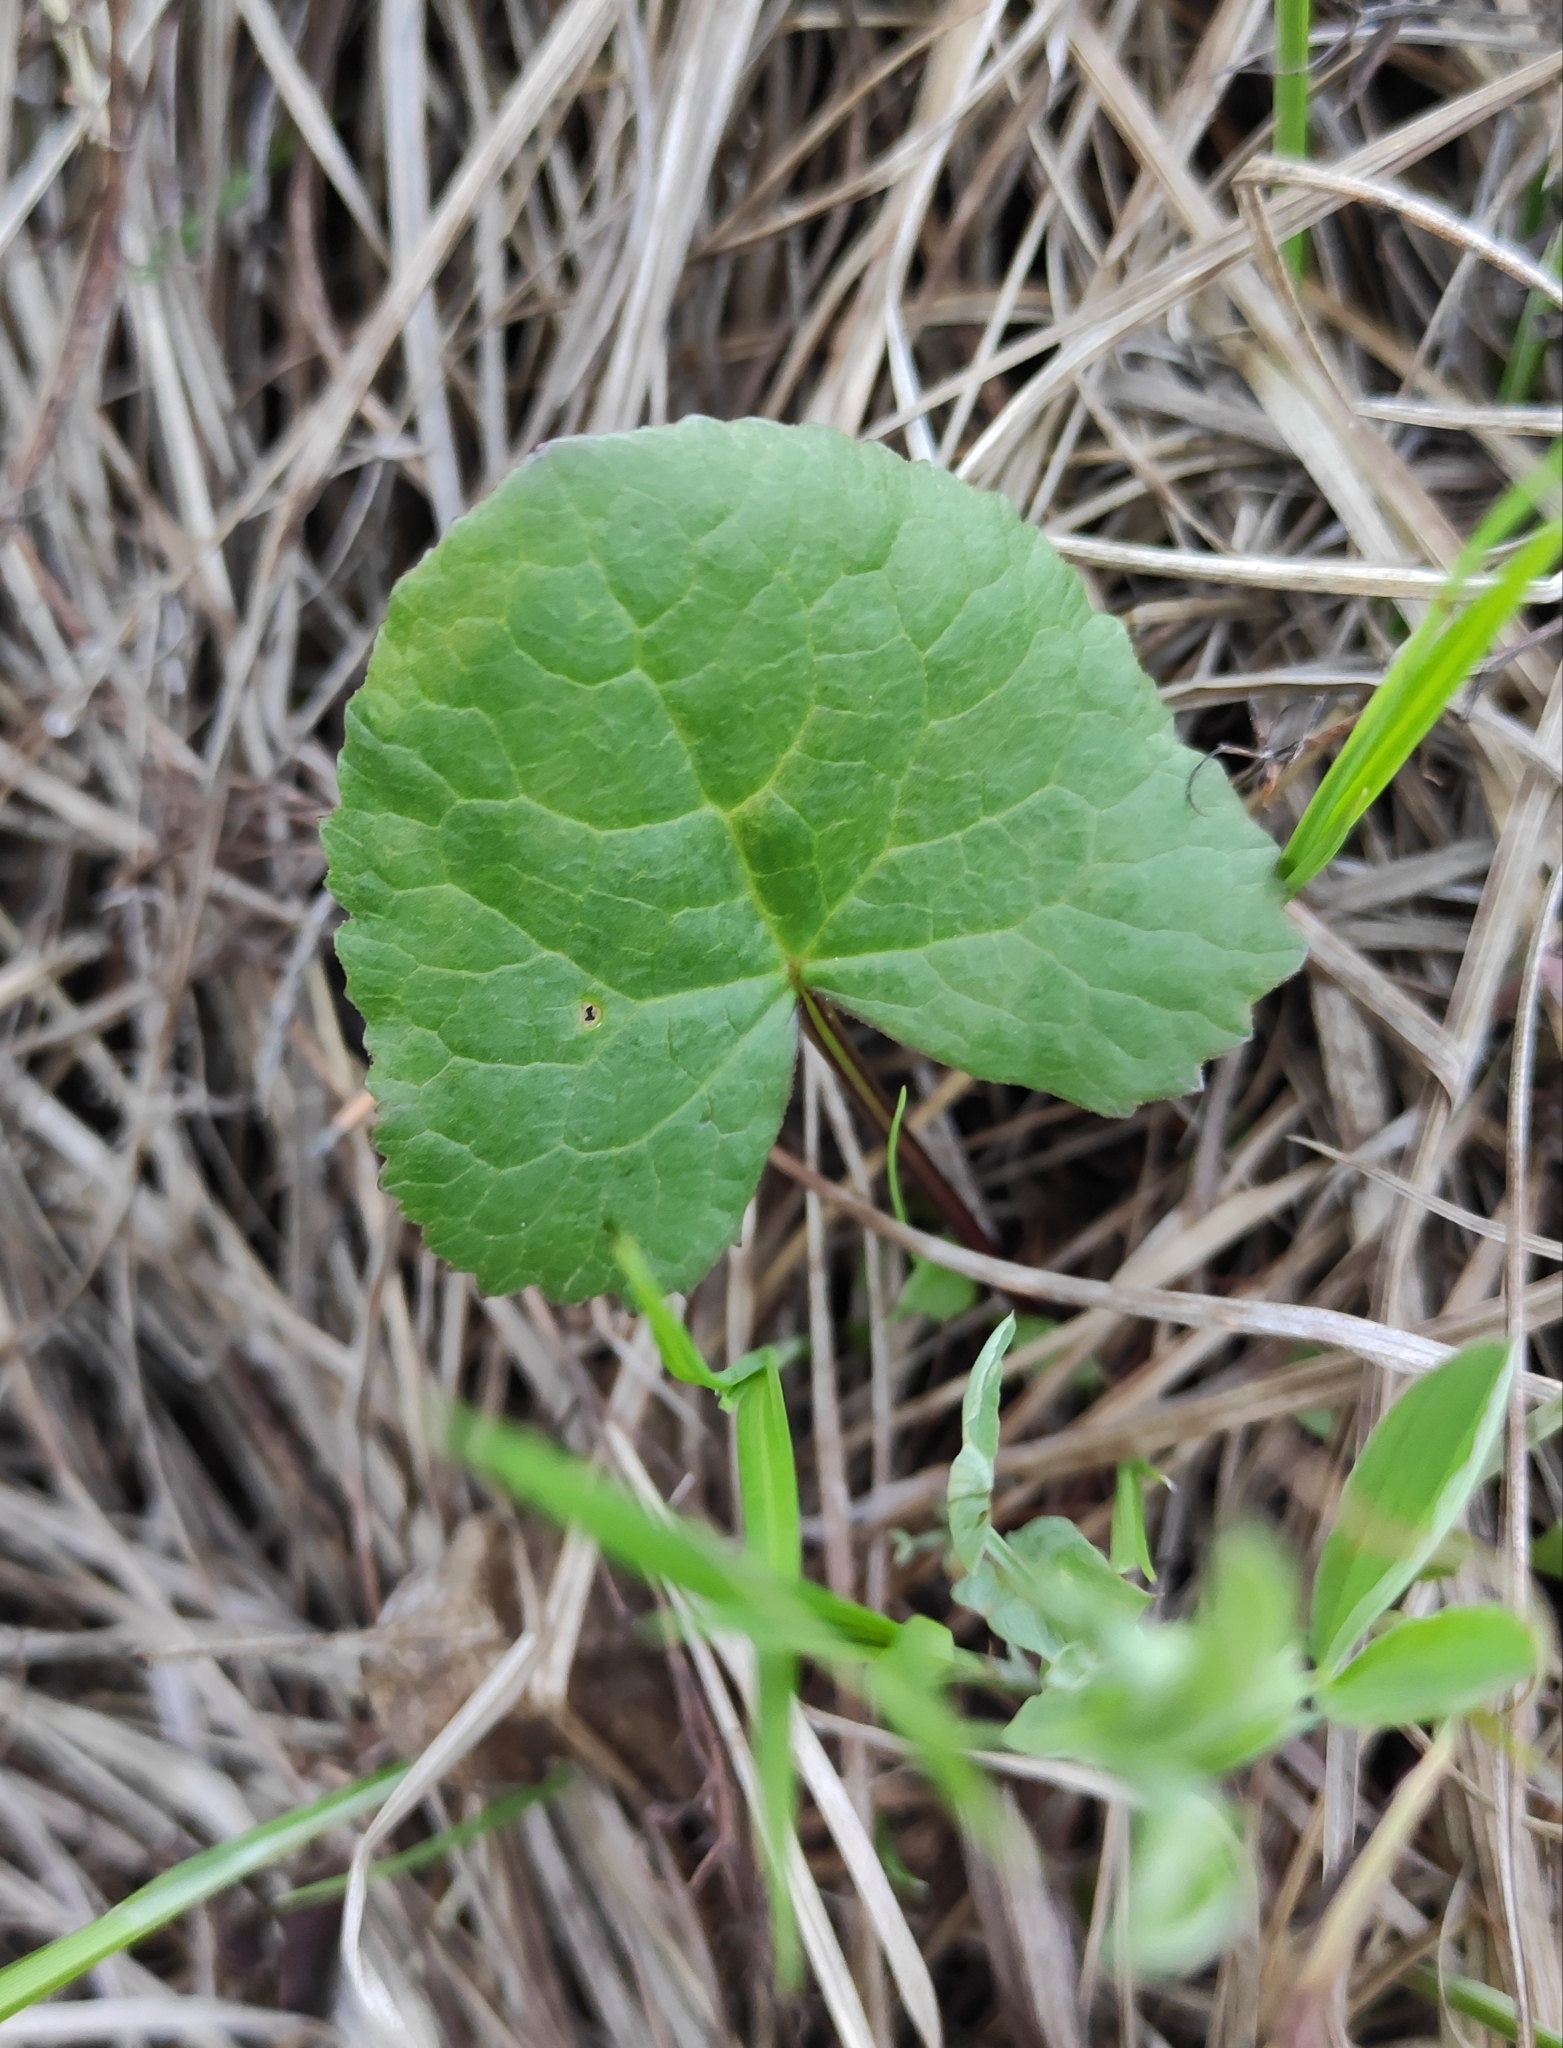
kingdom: Plantae
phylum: Tracheophyta
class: Magnoliopsida
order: Asterales
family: Asteraceae
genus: Ligularia
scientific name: Ligularia sibirica
